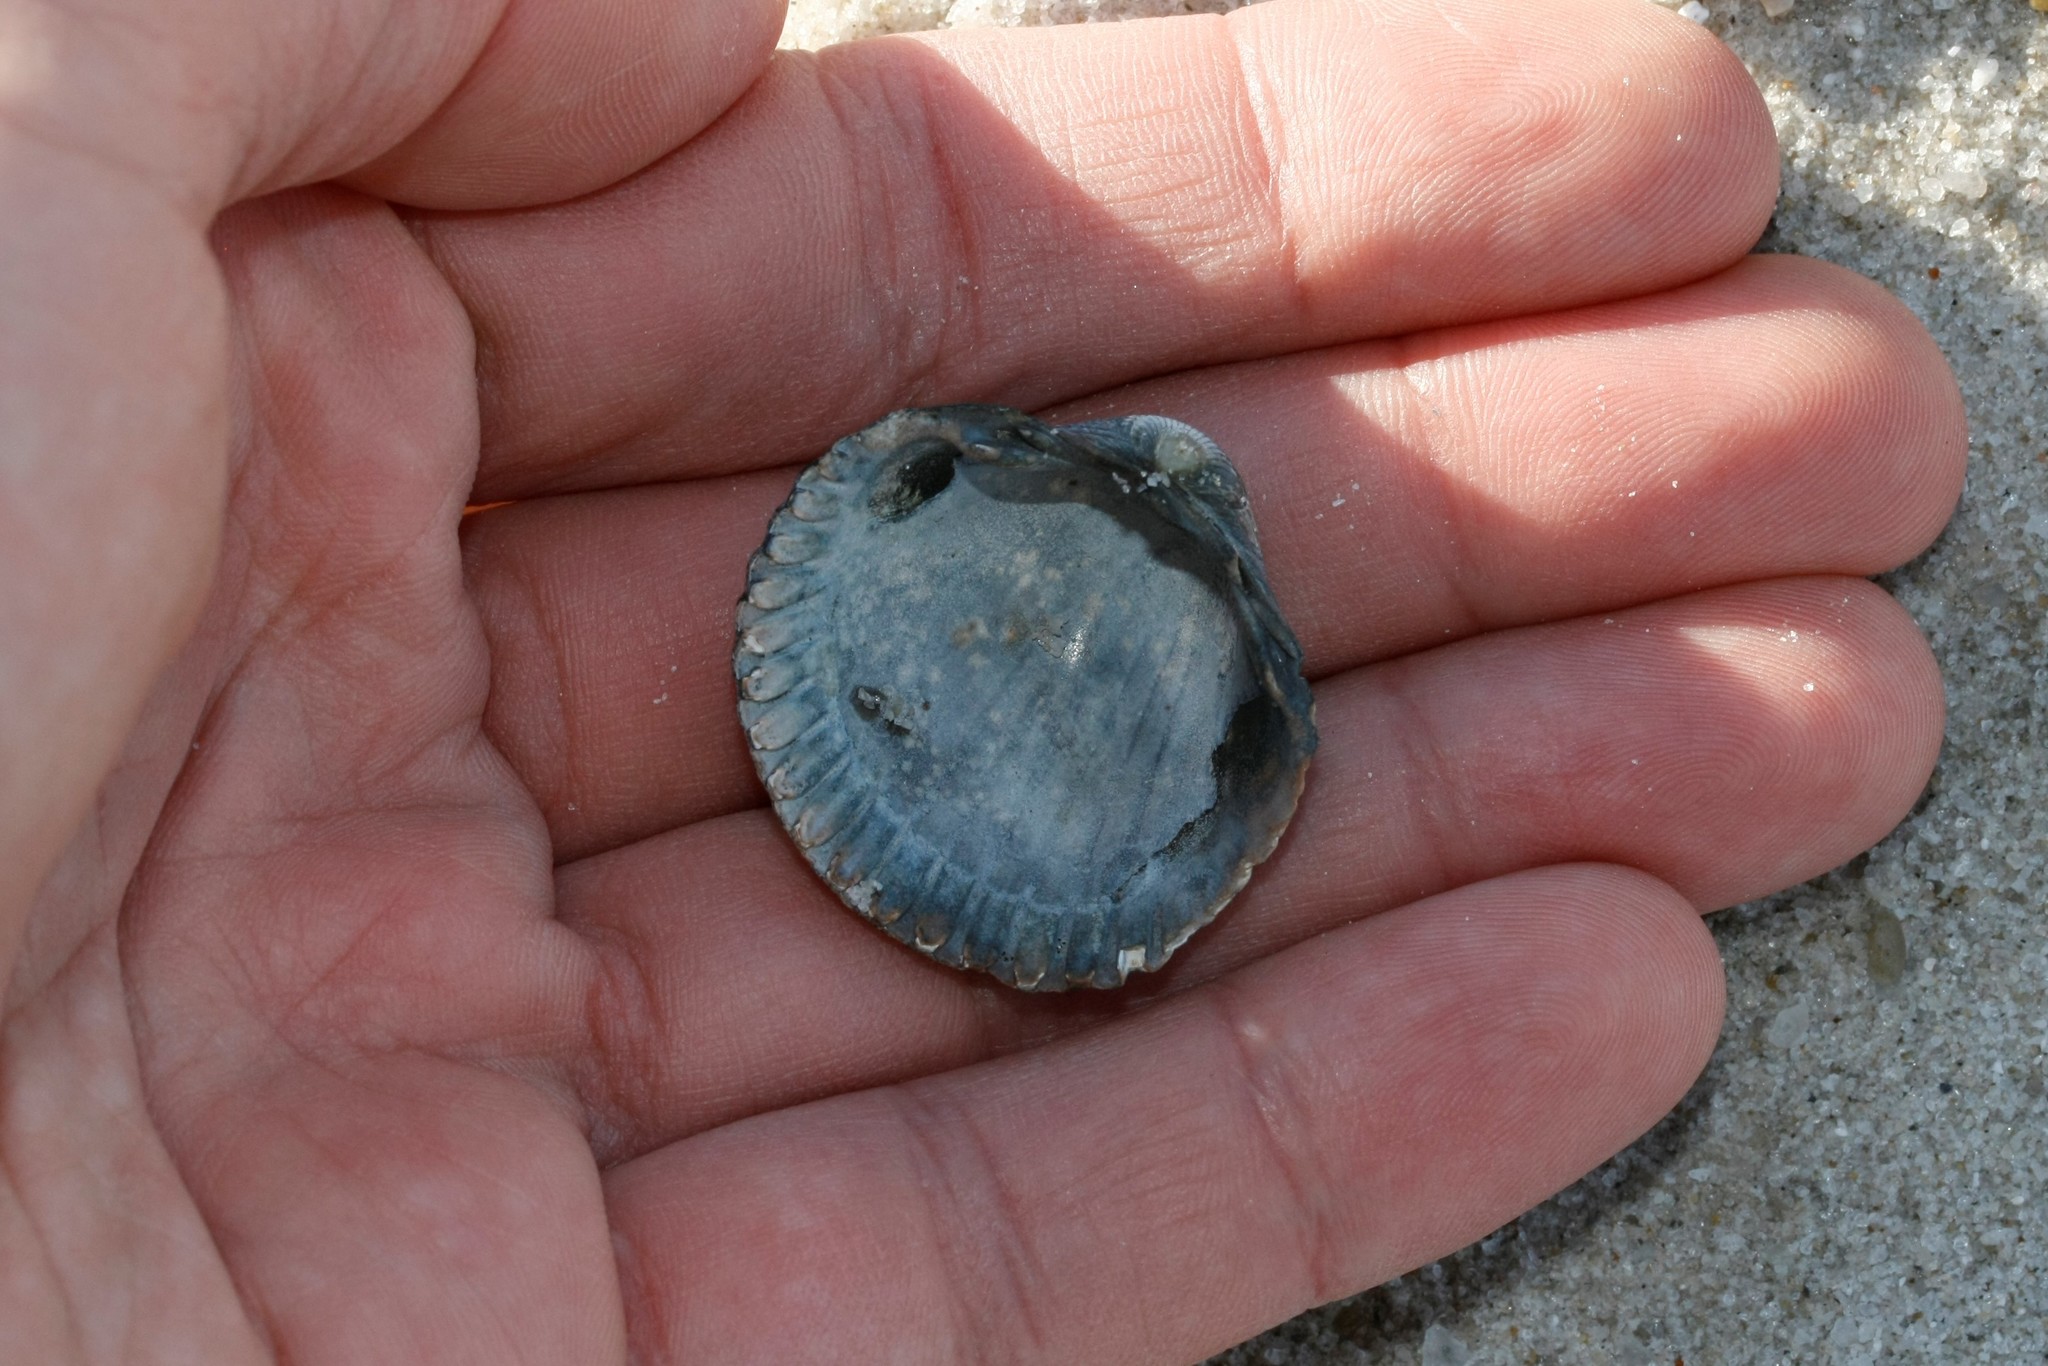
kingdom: Animalia
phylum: Mollusca
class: Bivalvia
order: Cardiida
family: Cardiidae
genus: Cerastoderma
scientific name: Cerastoderma edule
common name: Common cockle
